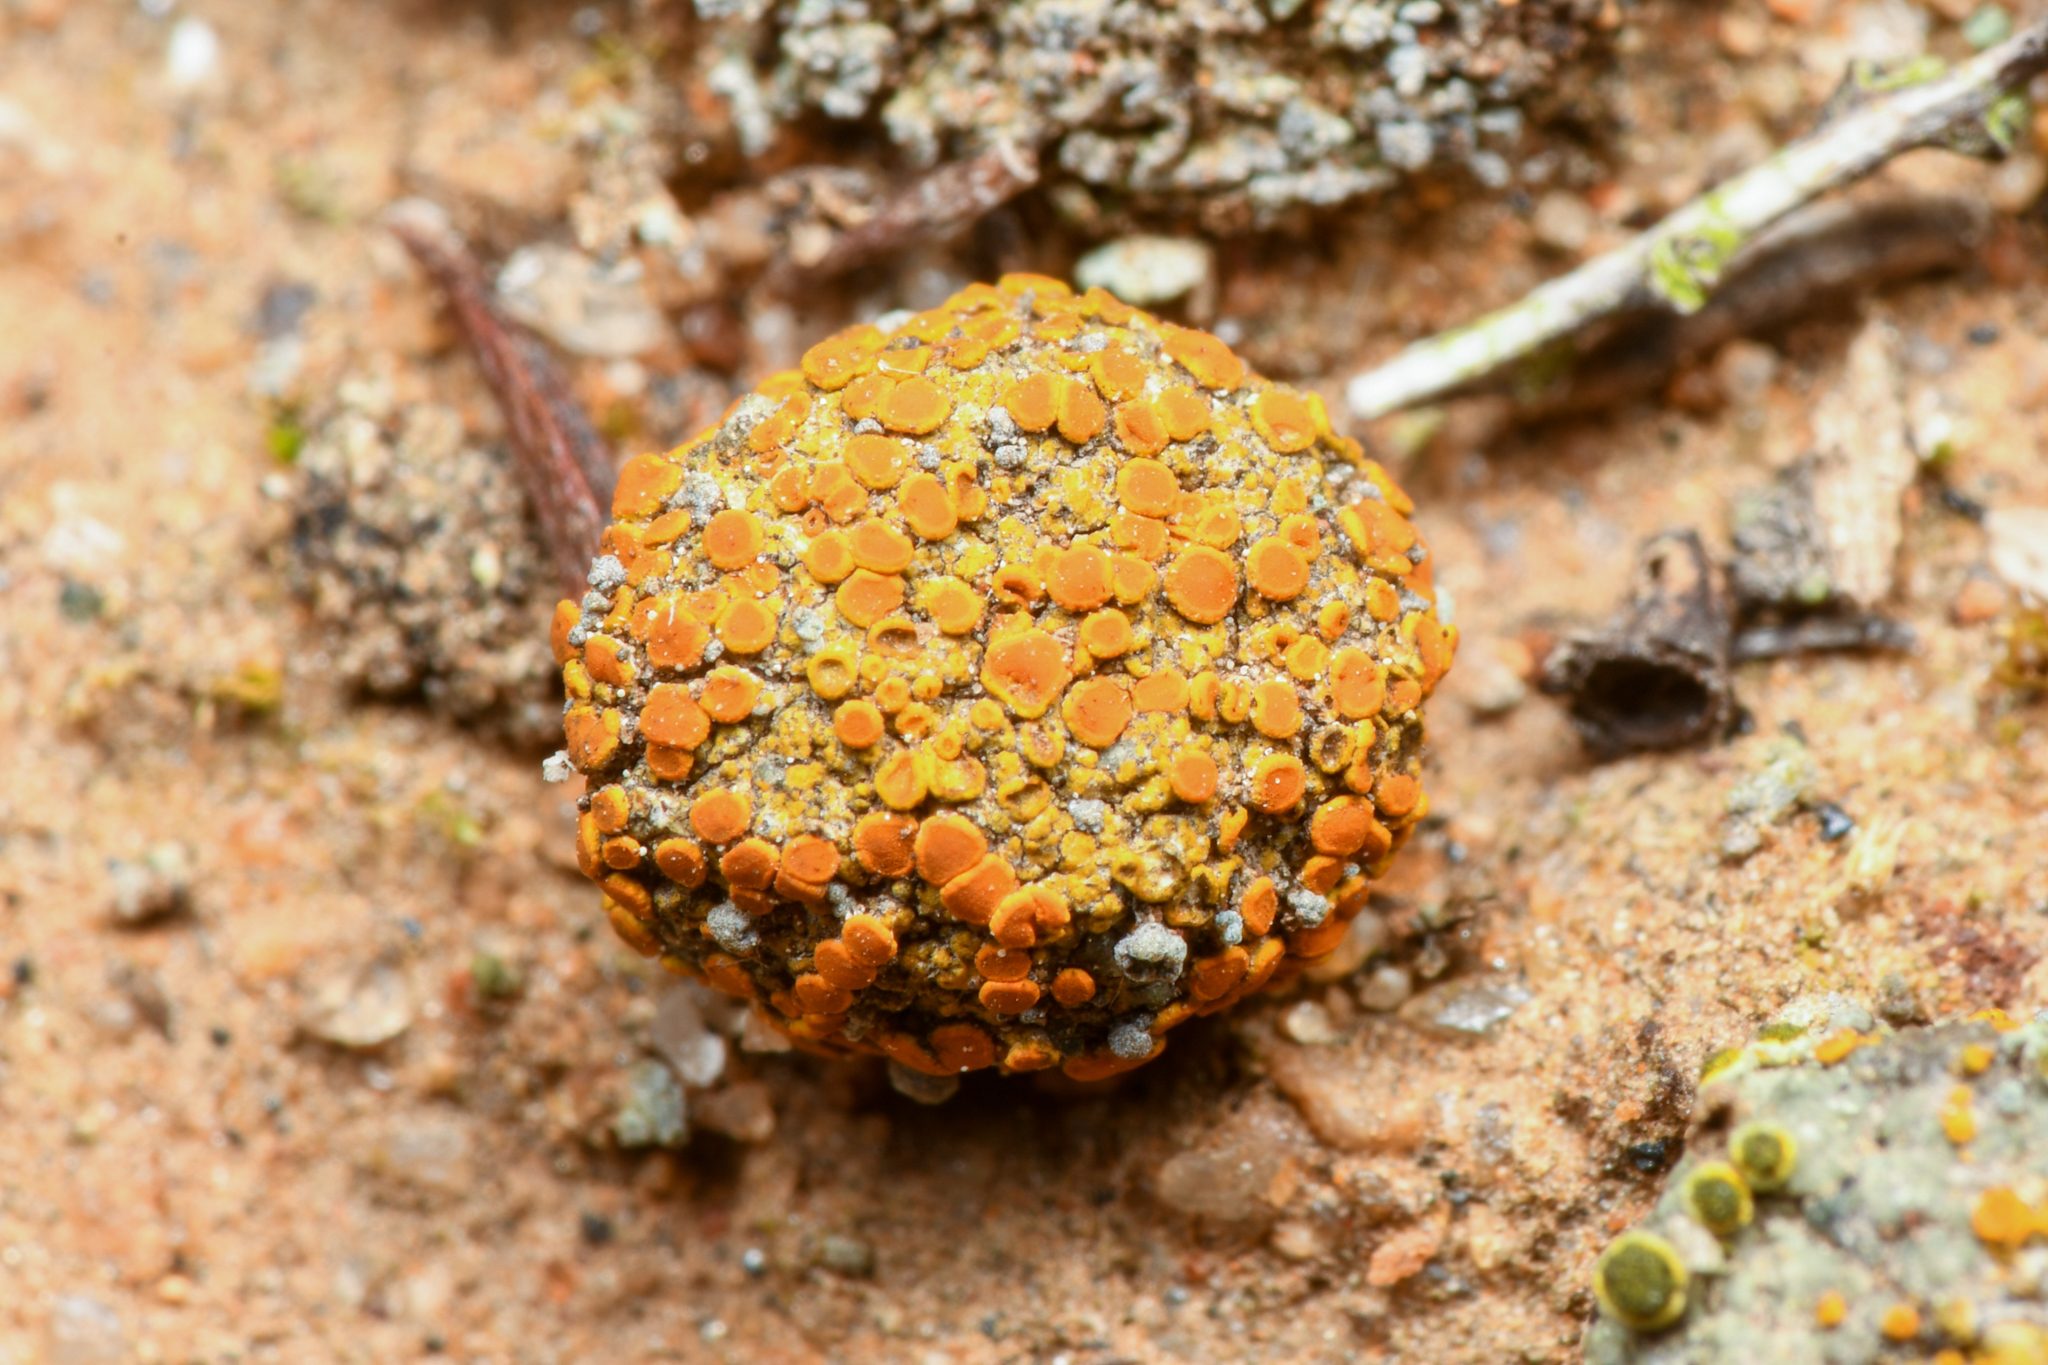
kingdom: Fungi
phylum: Ascomycota
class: Lecanoromycetes
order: Teloschistales
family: Teloschistaceae
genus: Caloplaca
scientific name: Caloplaca subpyracella
